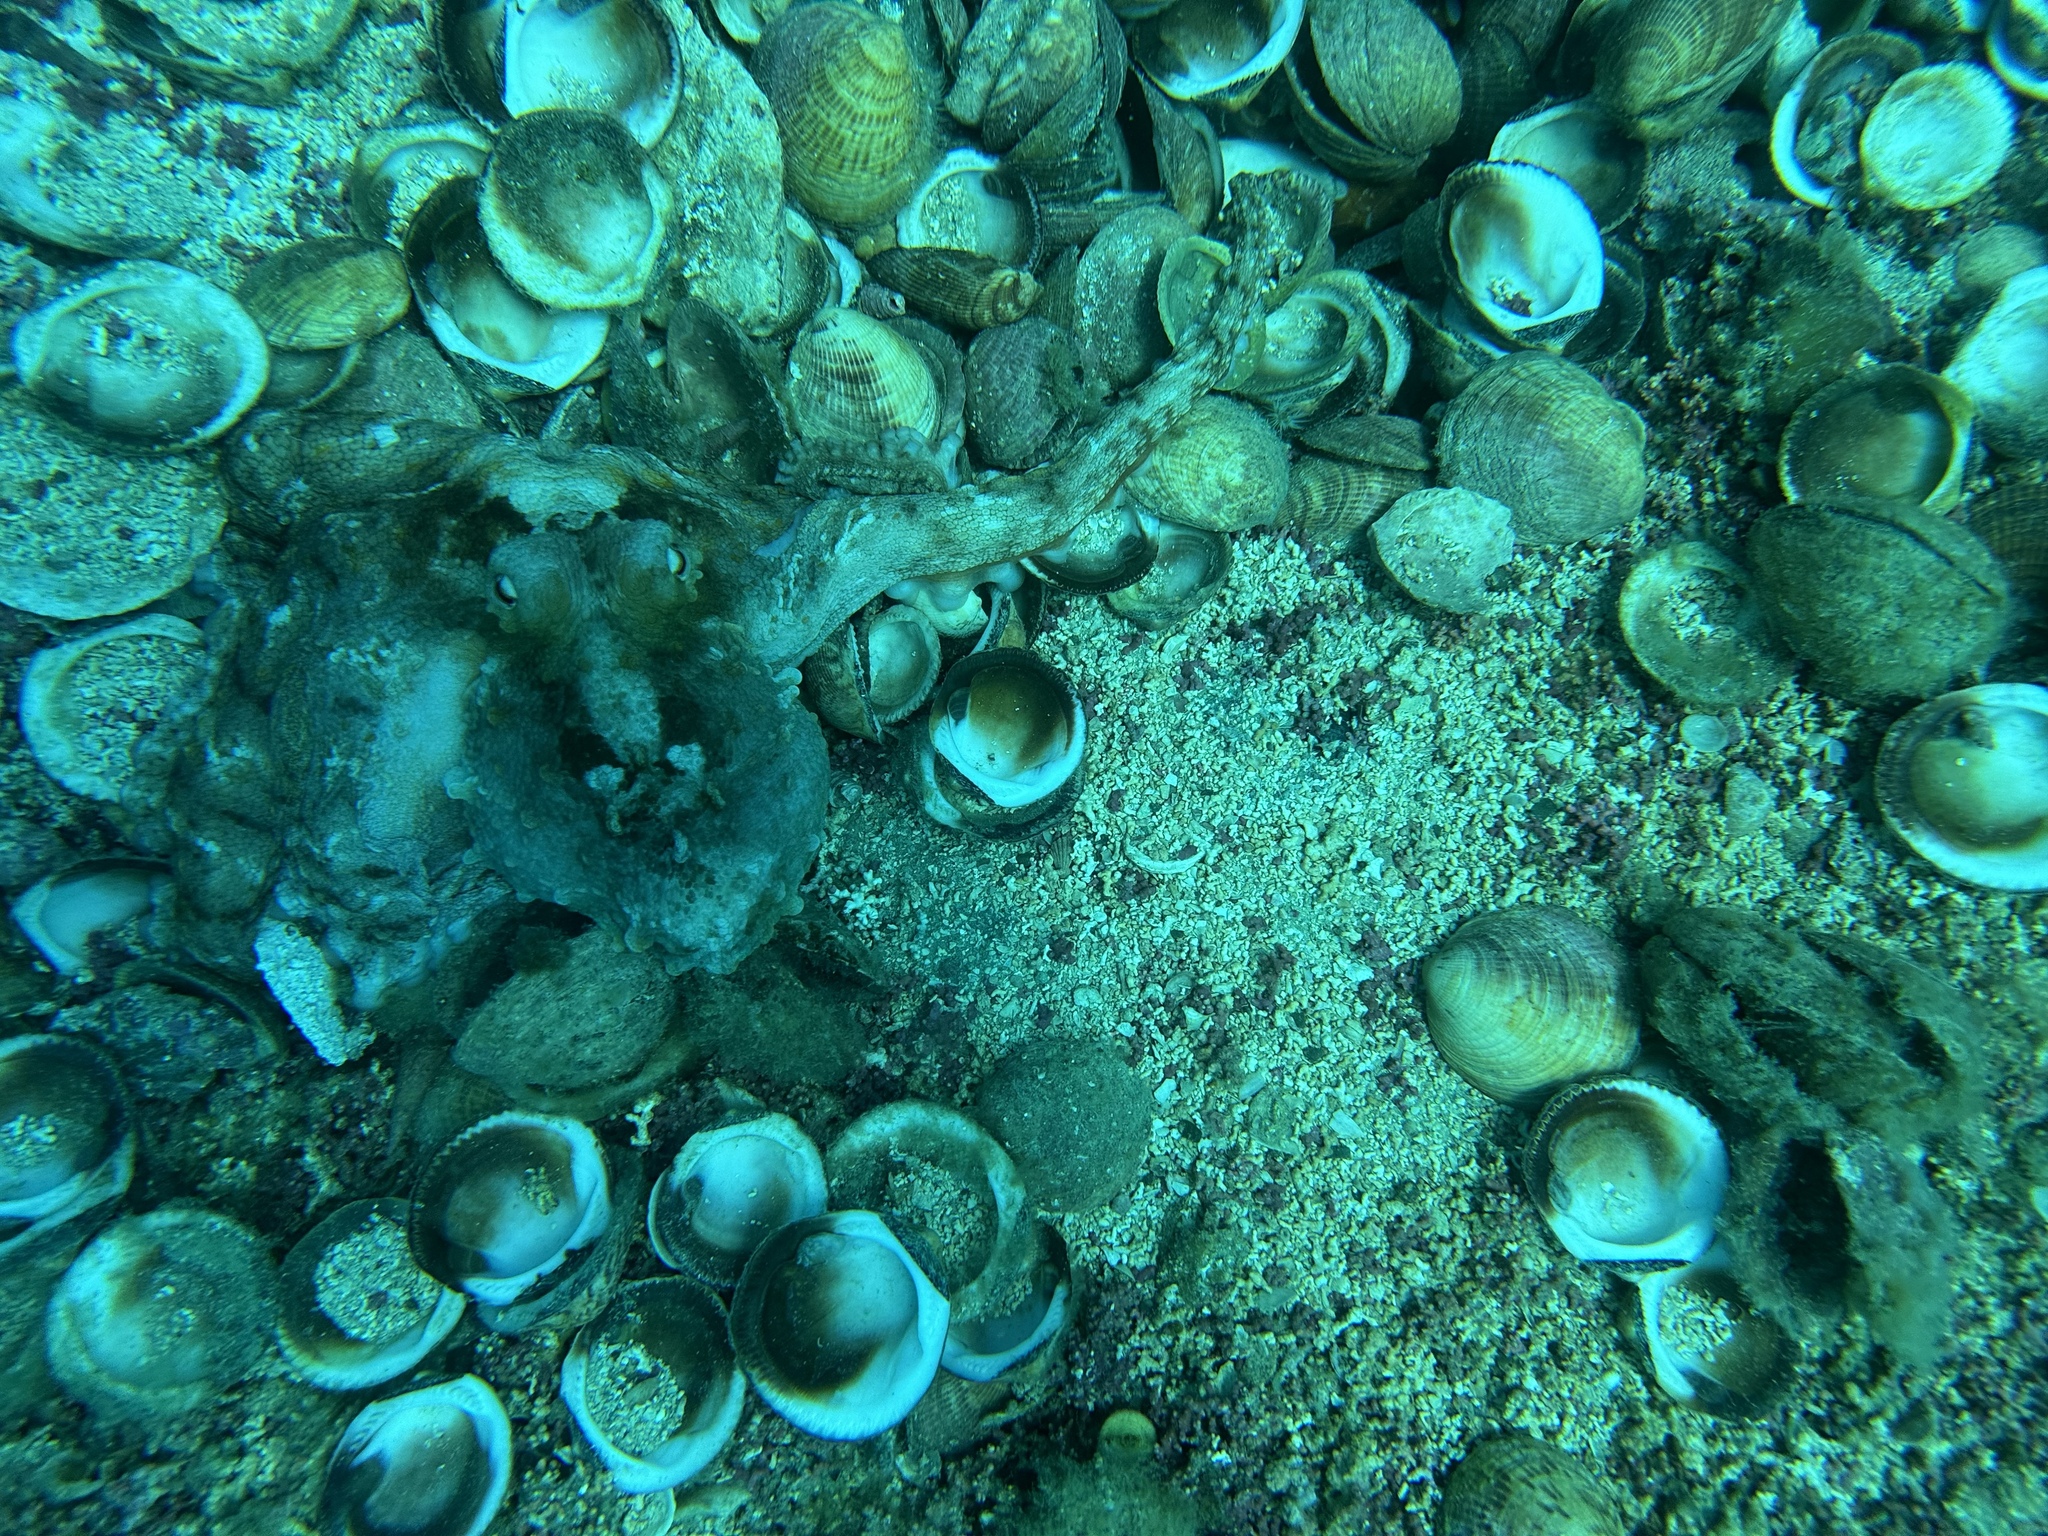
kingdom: Animalia
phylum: Mollusca
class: Cephalopoda
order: Octopoda
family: Octopodidae
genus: Octopus
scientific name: Octopus tetricus
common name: Sydney octopus
